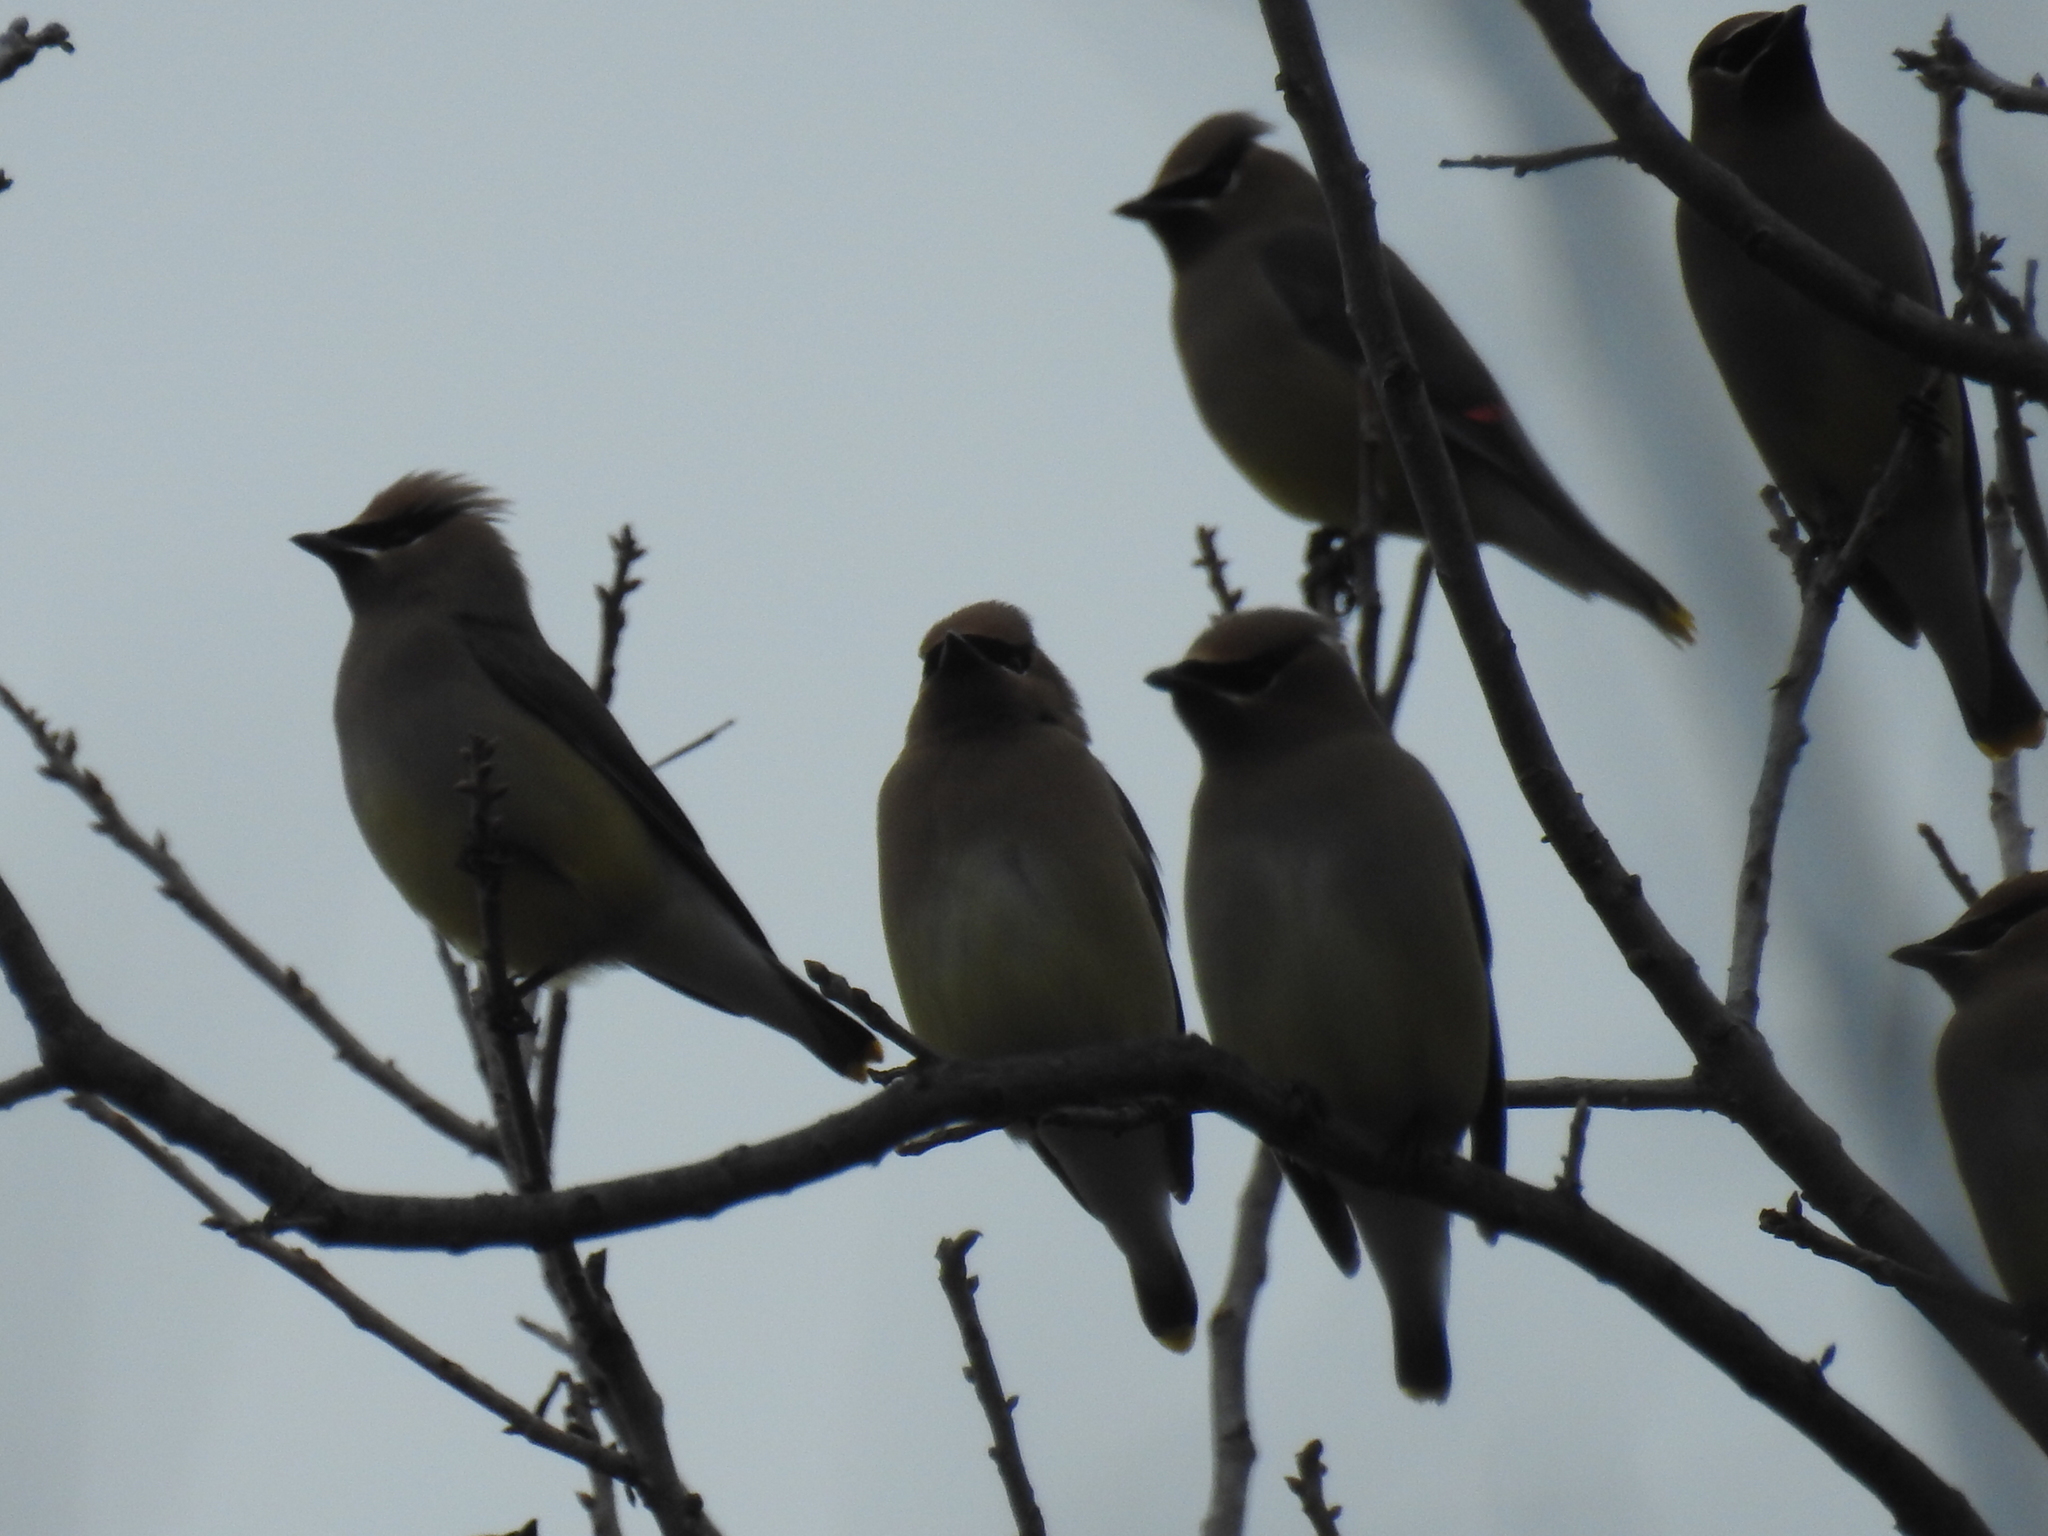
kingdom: Animalia
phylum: Chordata
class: Aves
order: Passeriformes
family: Bombycillidae
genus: Bombycilla
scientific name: Bombycilla cedrorum
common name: Cedar waxwing
